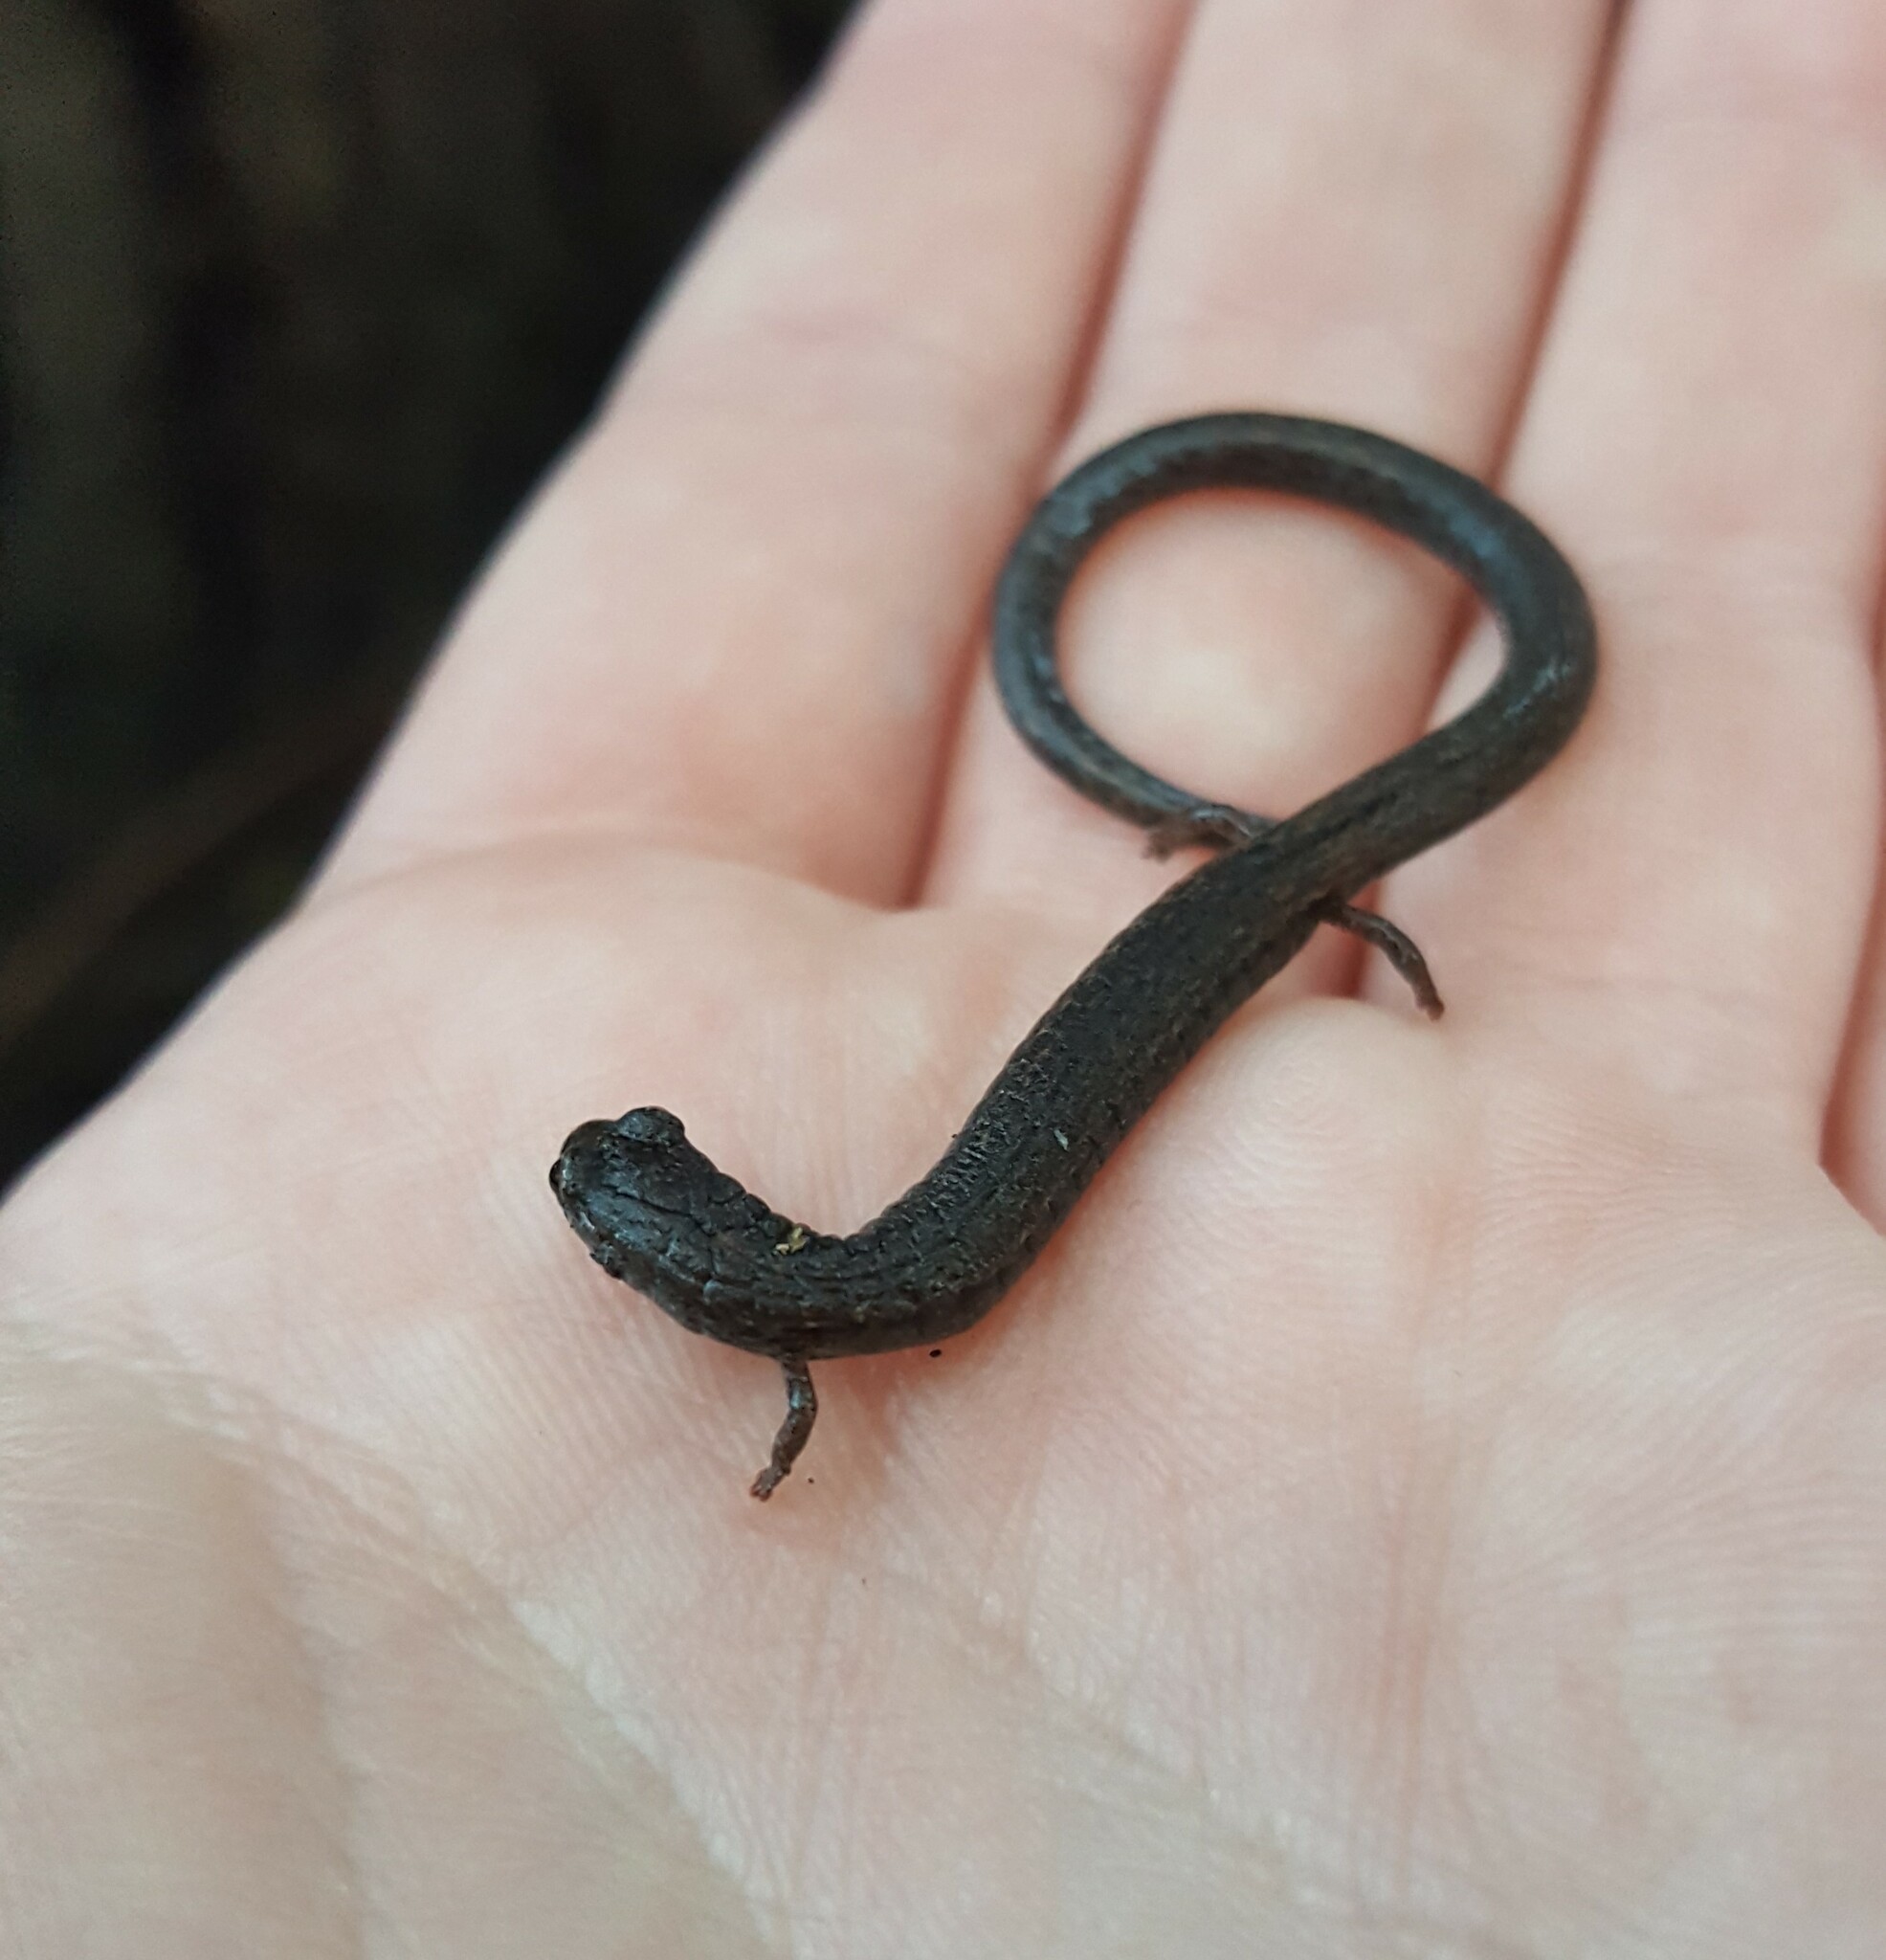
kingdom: Animalia
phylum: Chordata
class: Amphibia
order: Caudata
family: Plethodontidae
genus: Batrachoseps
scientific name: Batrachoseps nigriventris
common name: Black-bellied slender salamander
